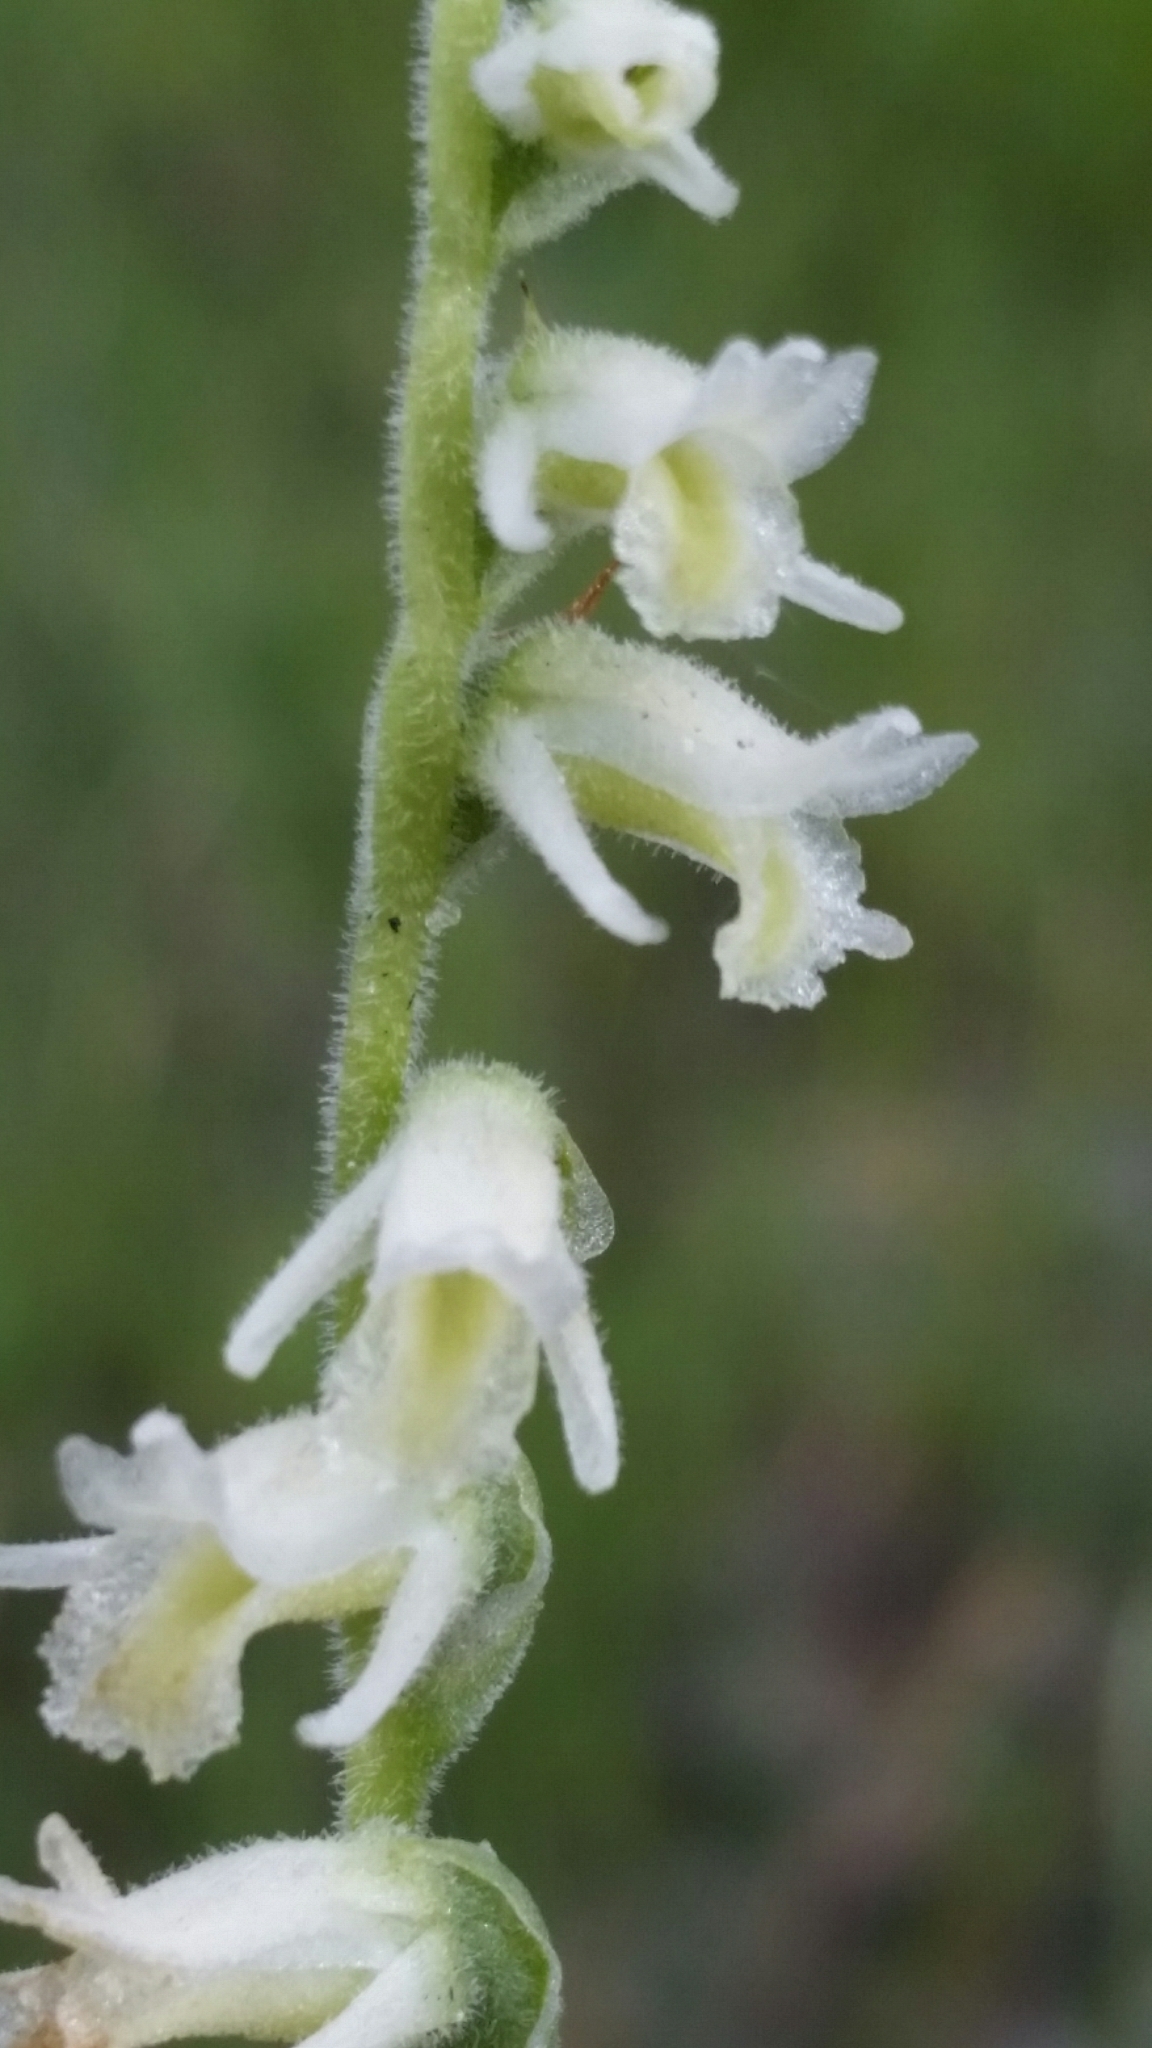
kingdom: Plantae
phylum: Tracheophyta
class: Liliopsida
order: Asparagales
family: Orchidaceae
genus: Spiranthes
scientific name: Spiranthes vernalis
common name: Spring ladies'-tresses
